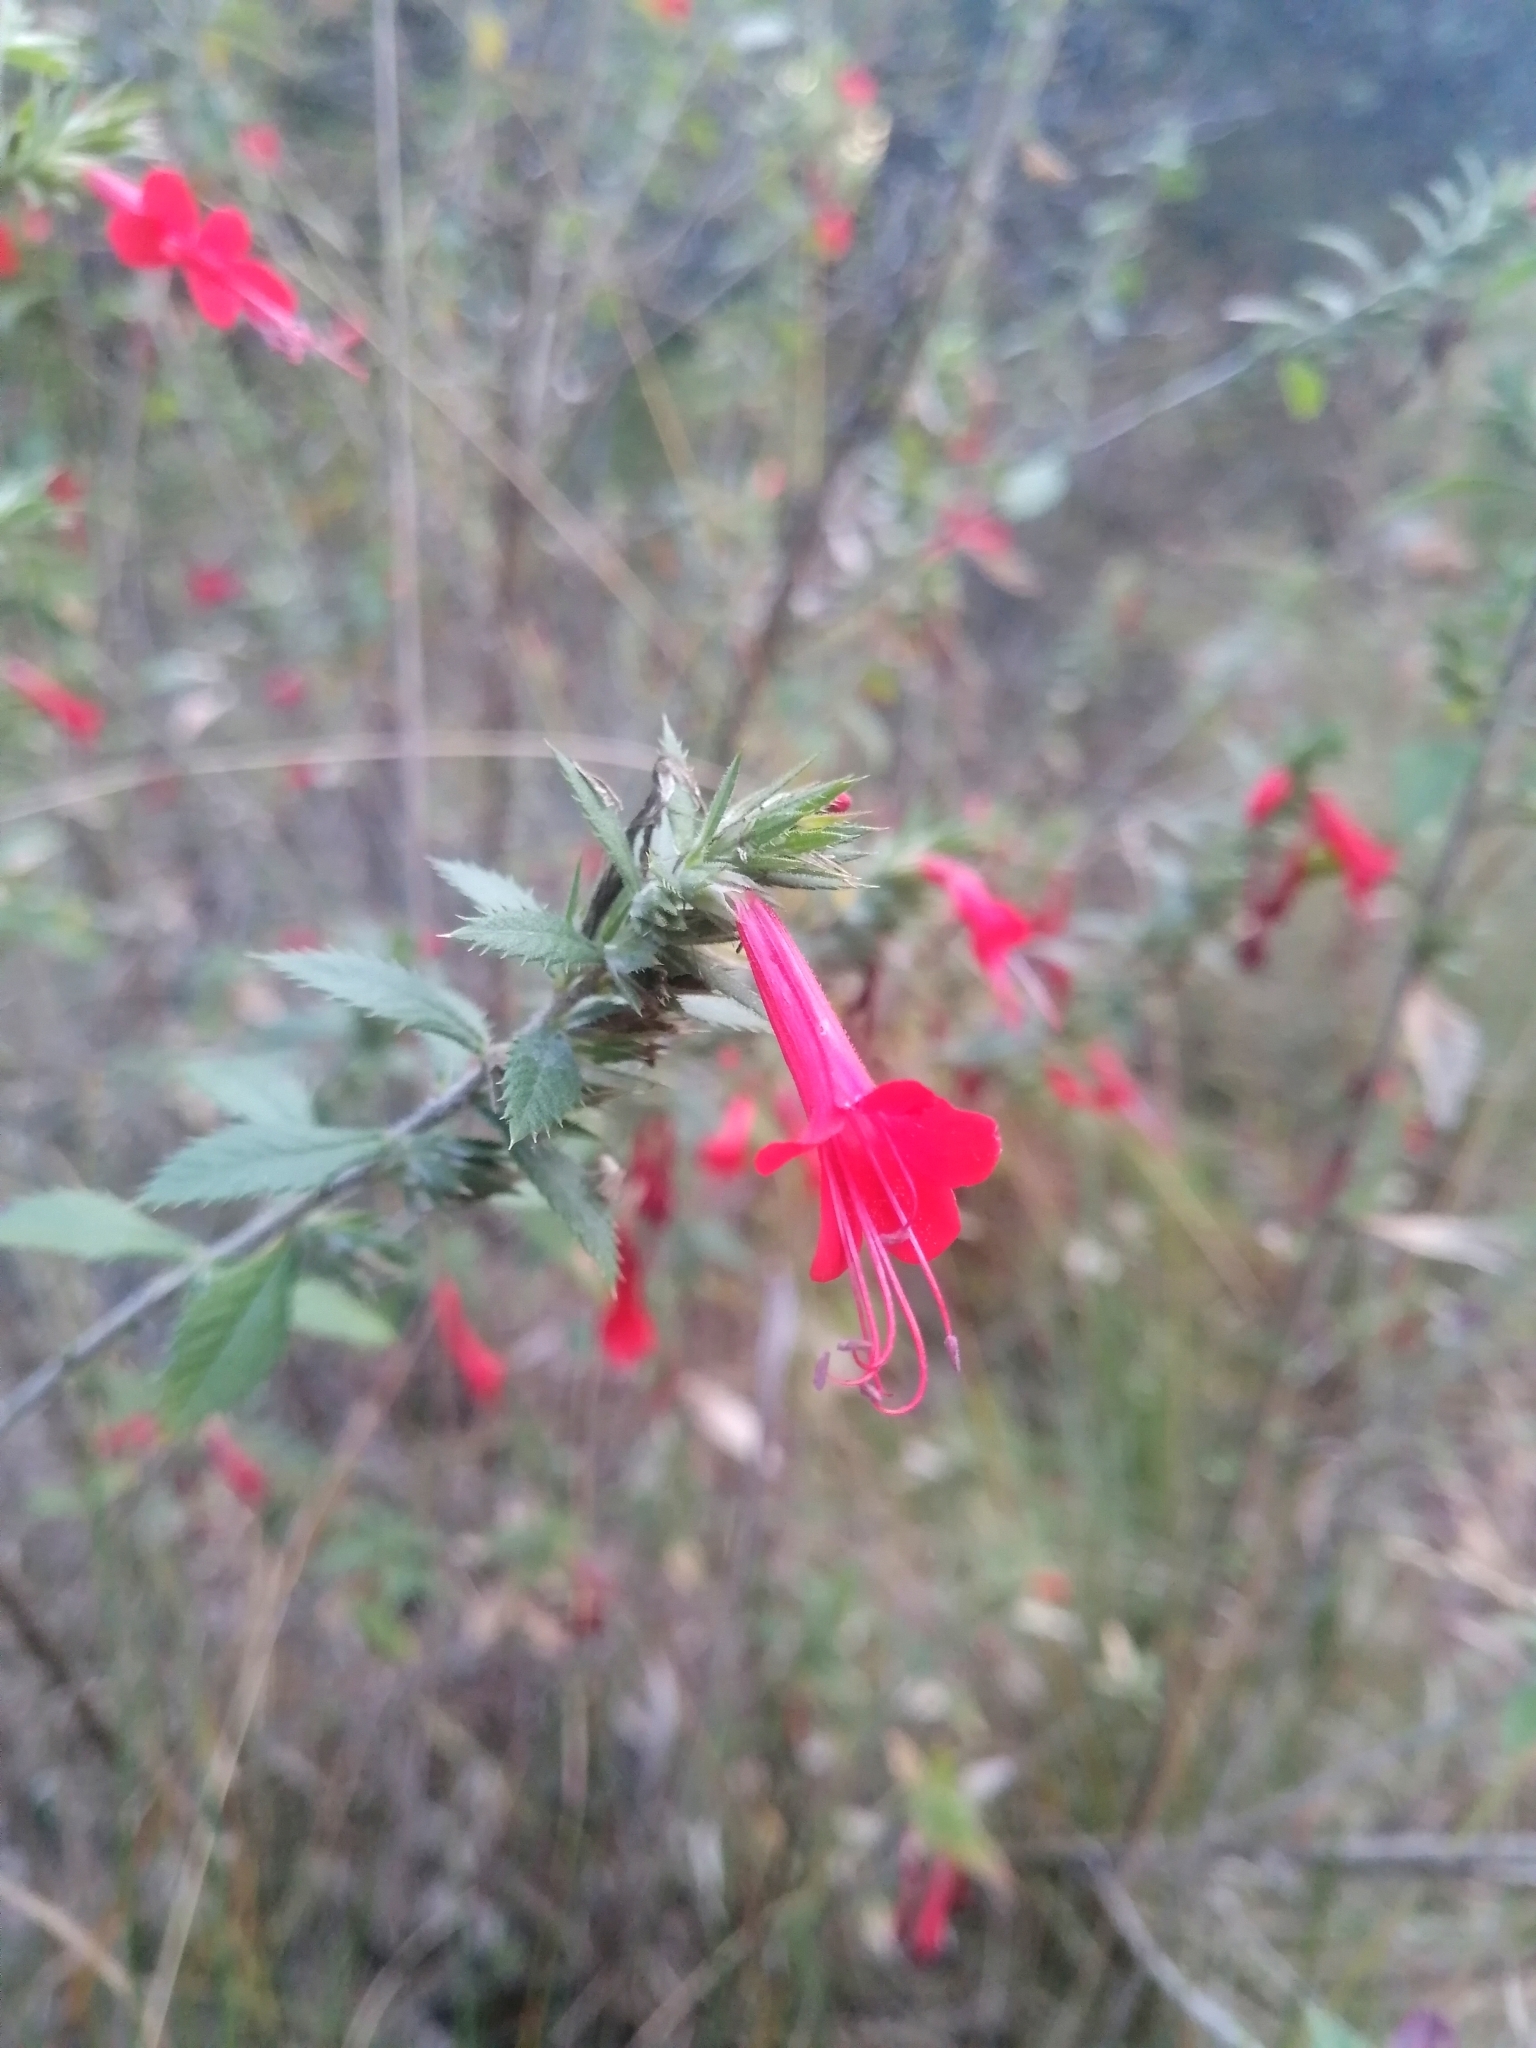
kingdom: Plantae
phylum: Tracheophyta
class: Magnoliopsida
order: Ericales
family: Polemoniaceae
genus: Loeselia
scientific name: Loeselia mexicana
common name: Mexican false calico
